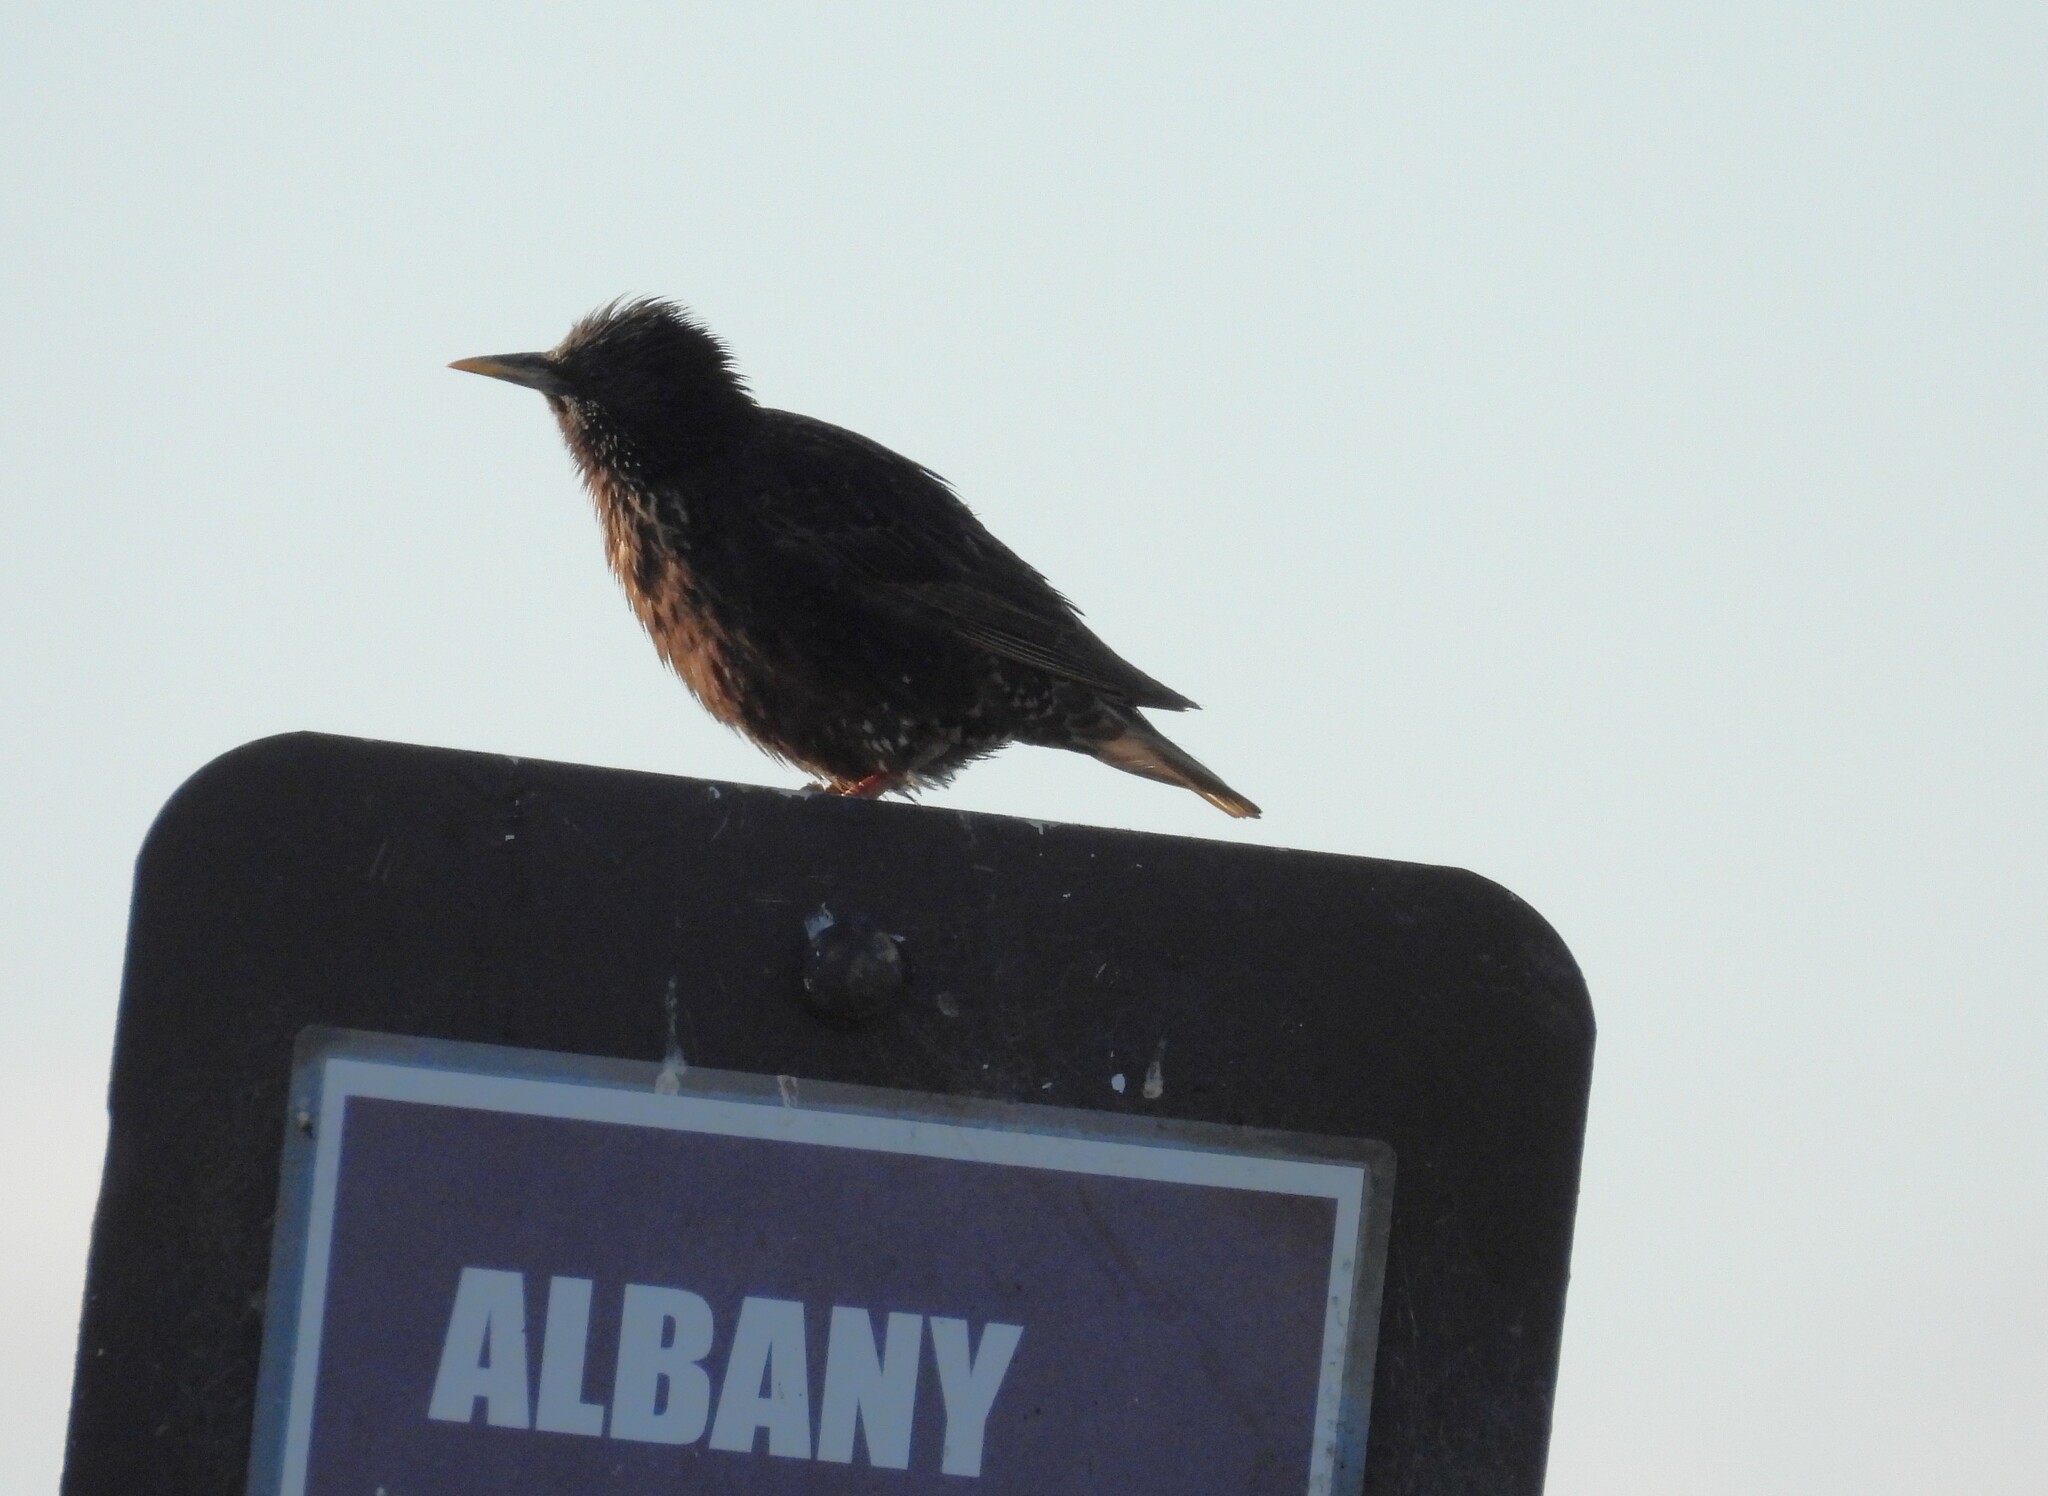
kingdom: Animalia
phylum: Chordata
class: Aves
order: Passeriformes
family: Sturnidae
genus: Sturnus
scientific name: Sturnus vulgaris
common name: Common starling
